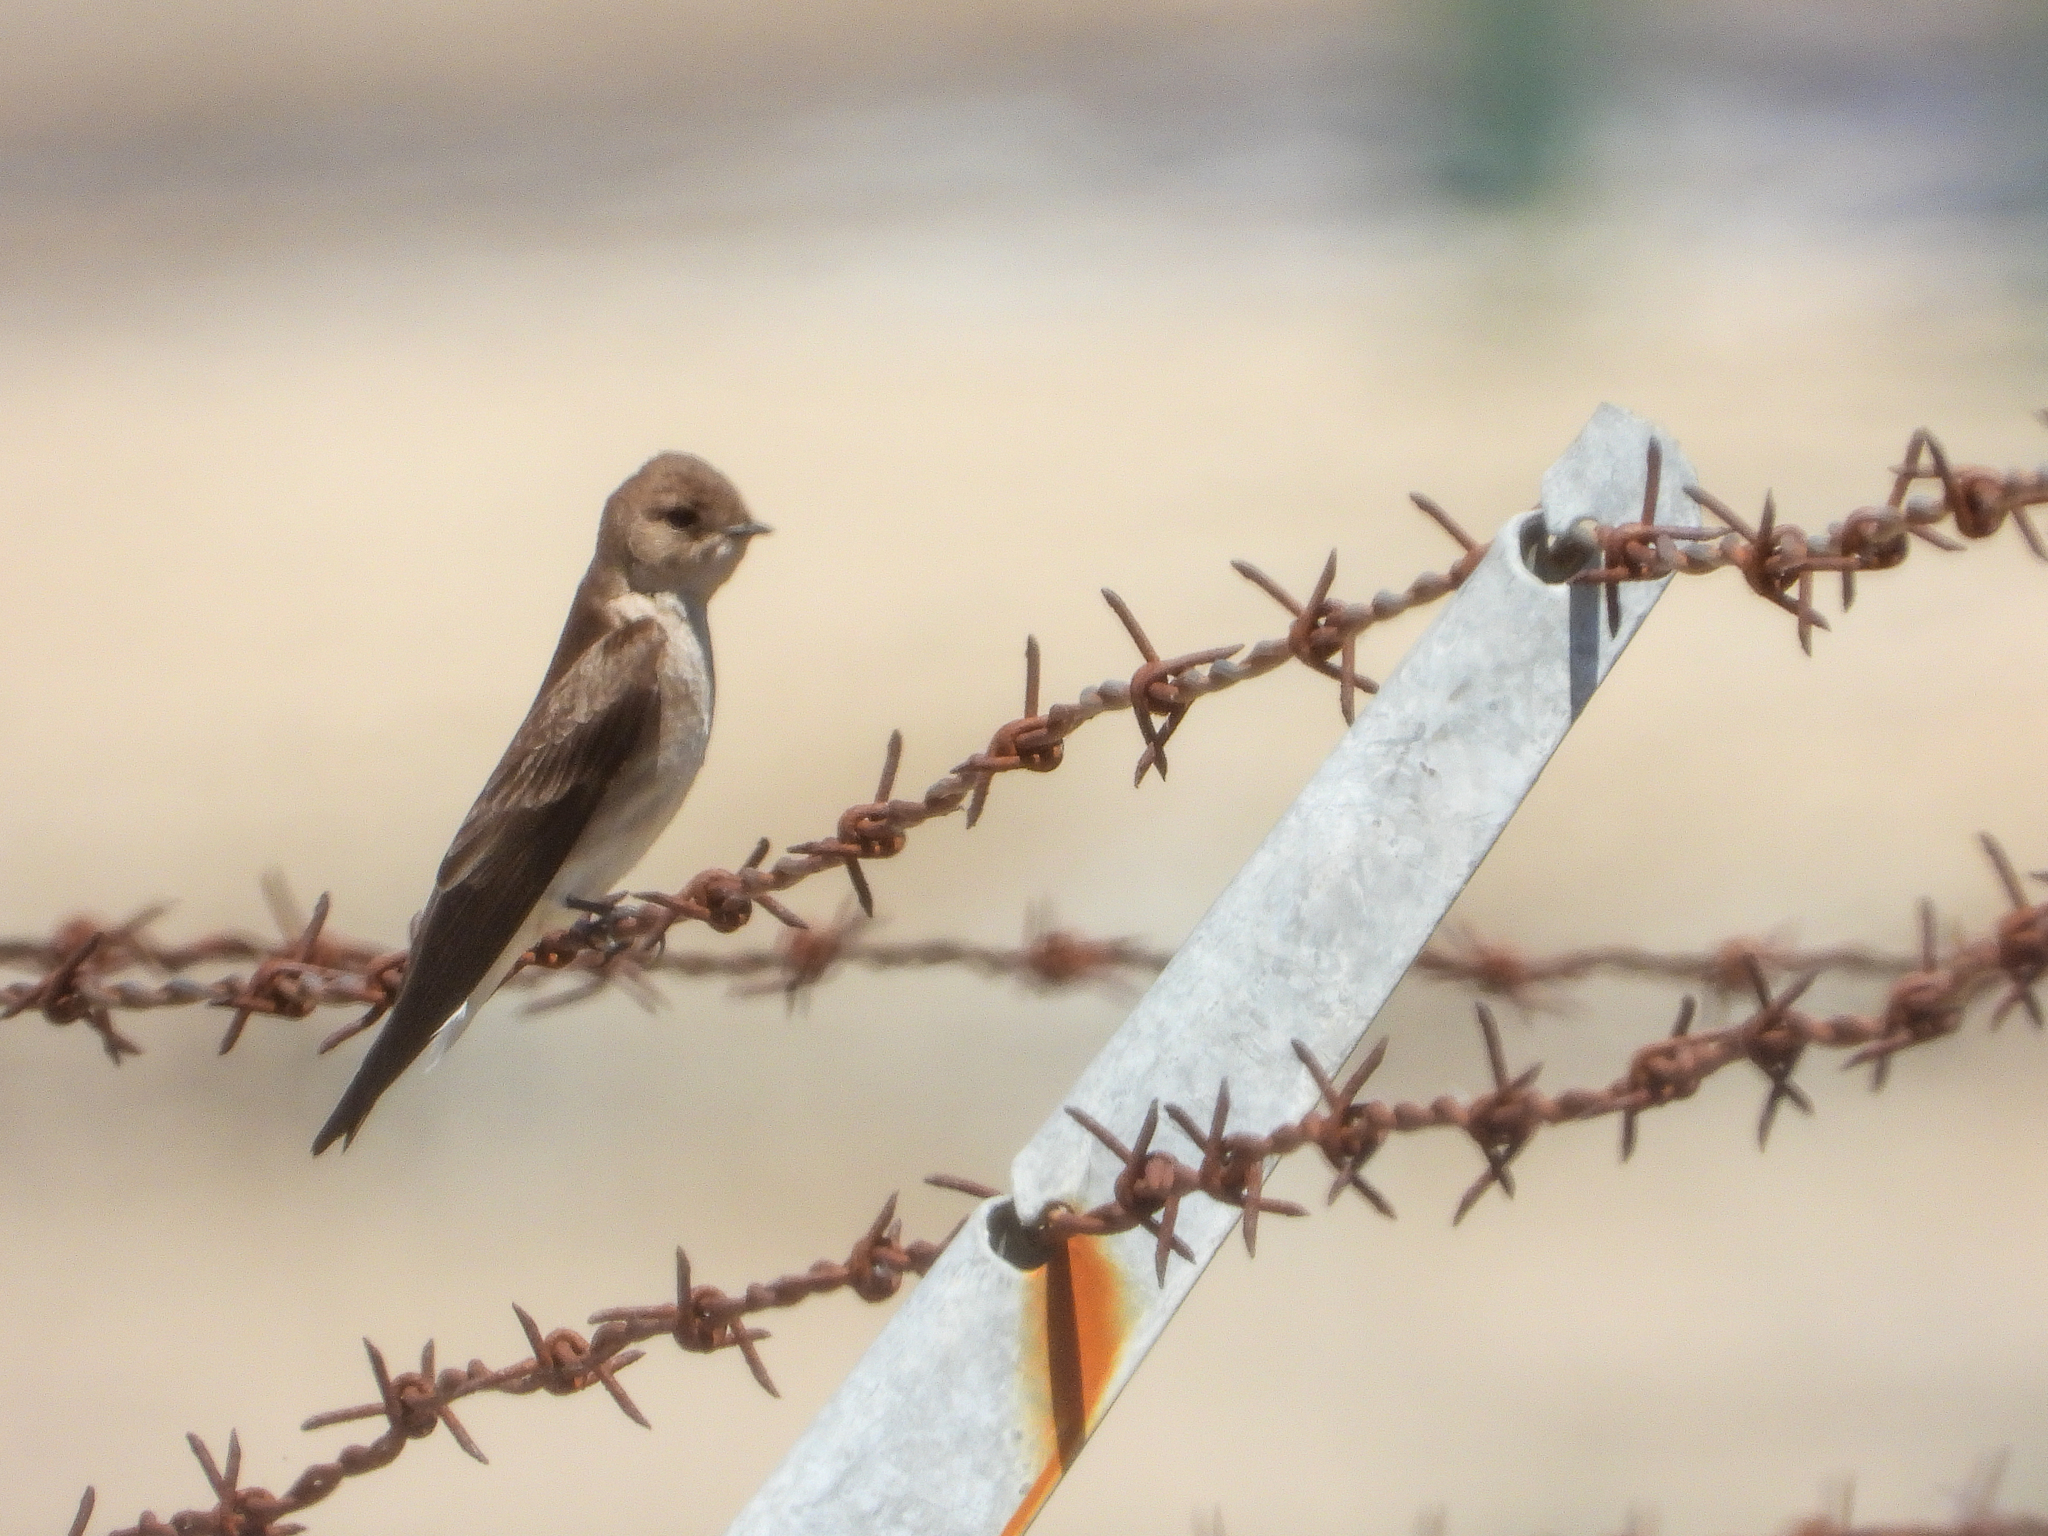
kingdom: Animalia
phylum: Chordata
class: Aves
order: Passeriformes
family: Hirundinidae
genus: Stelgidopteryx
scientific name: Stelgidopteryx serripennis
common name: Northern rough-winged swallow
